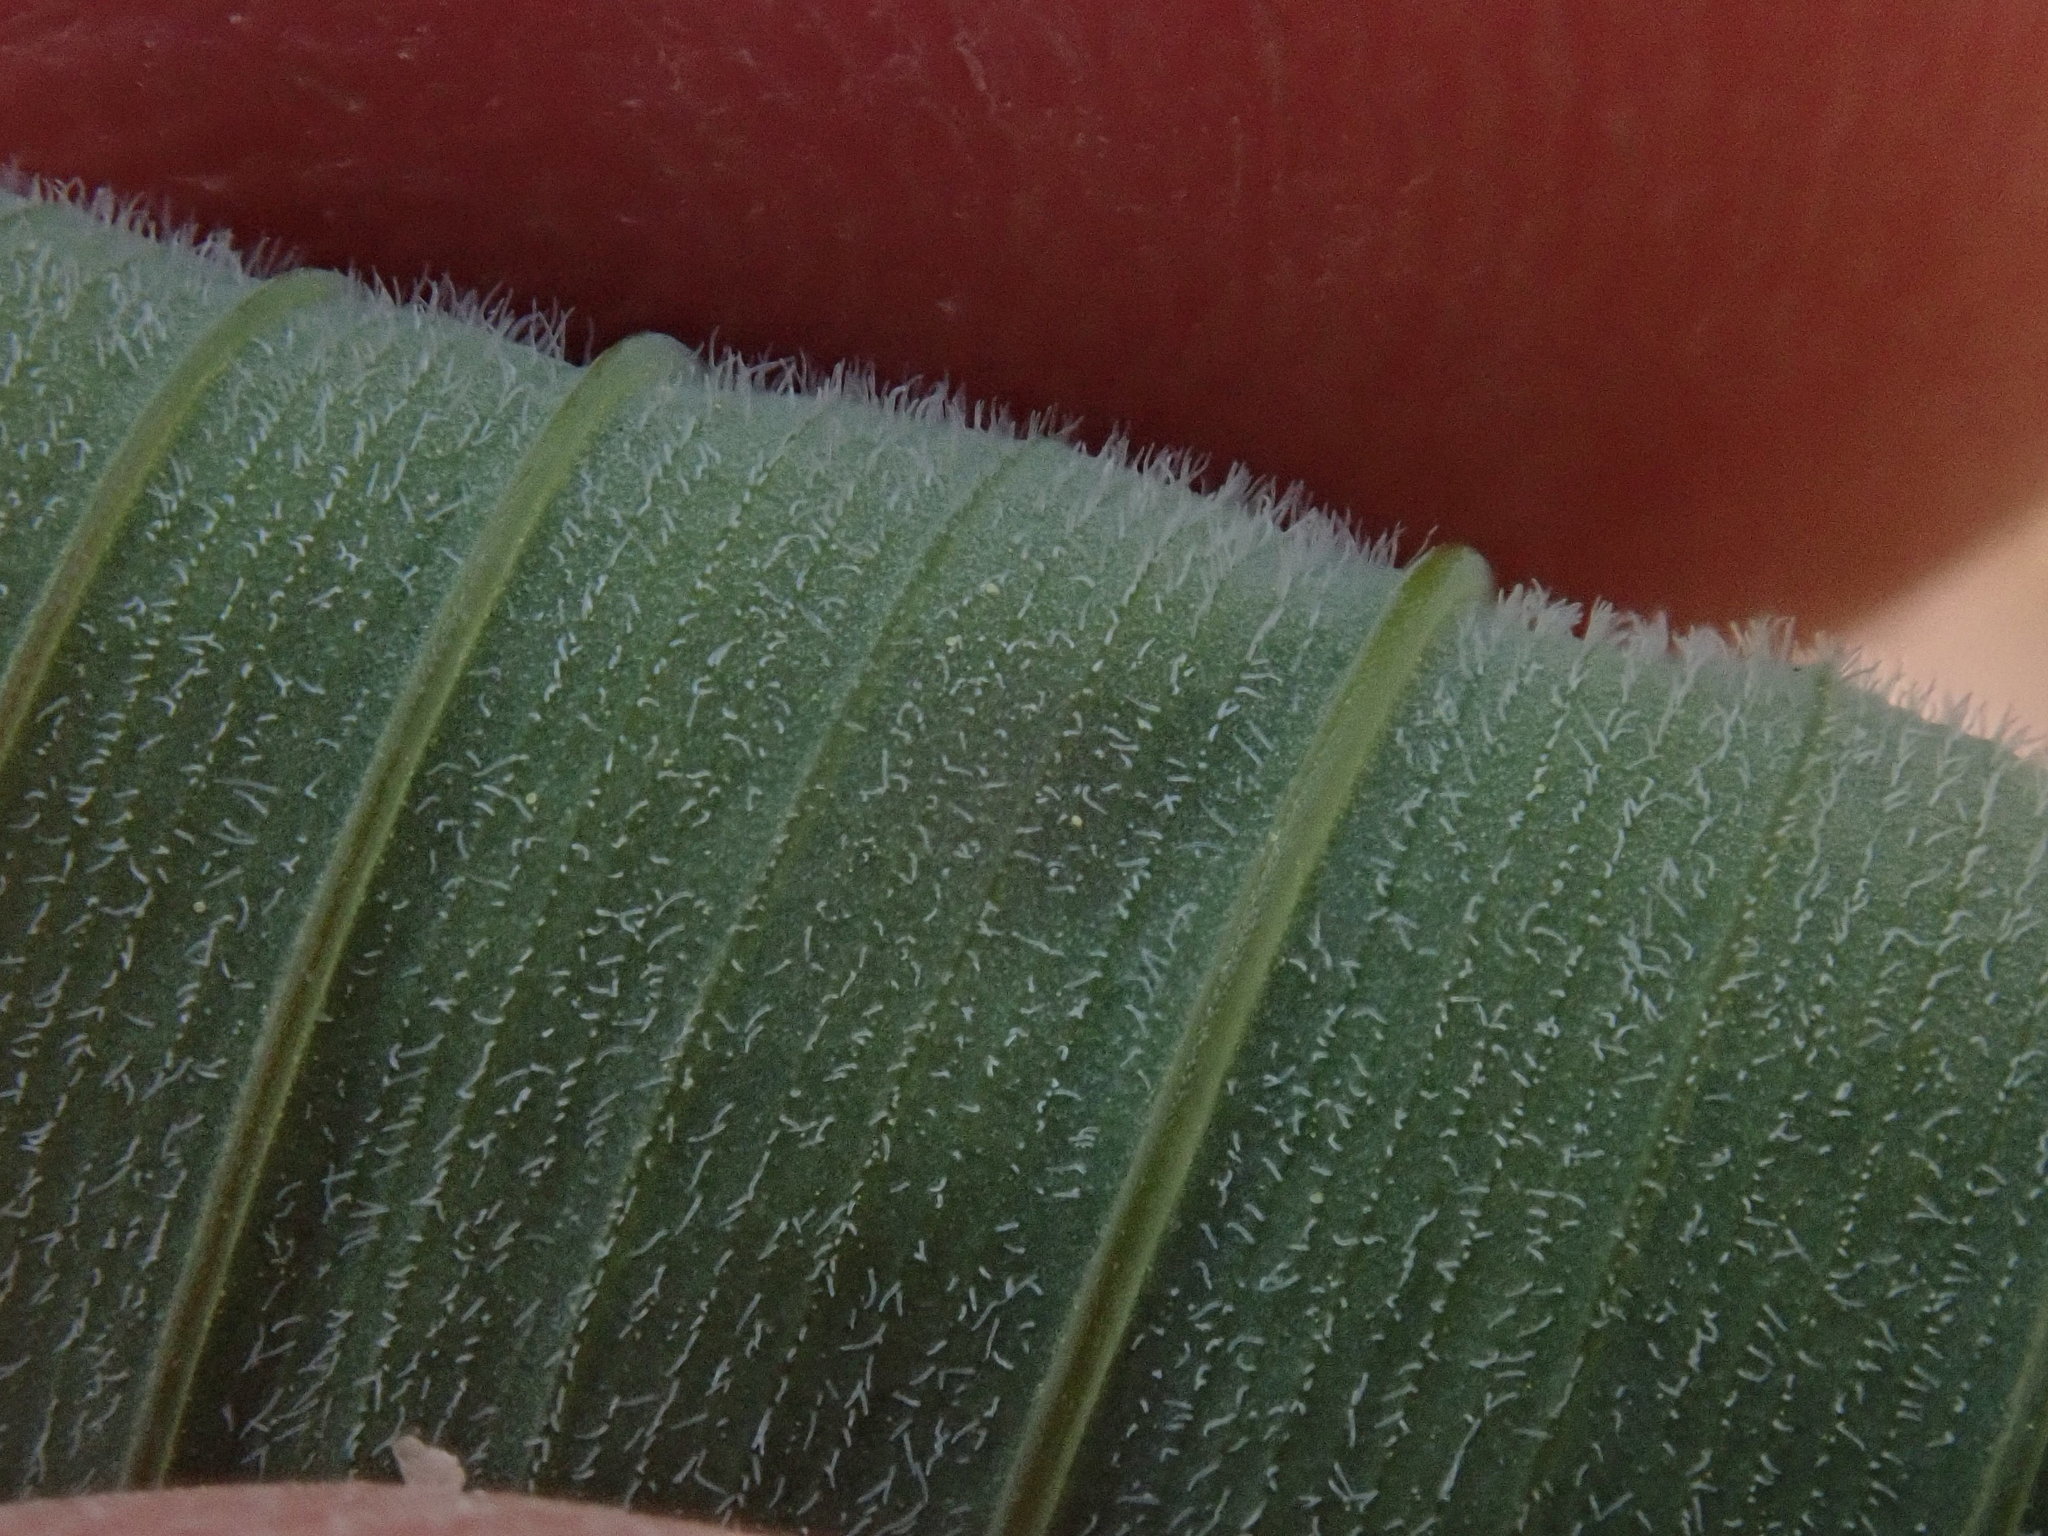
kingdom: Plantae
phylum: Tracheophyta
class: Liliopsida
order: Asparagales
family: Asparagaceae
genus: Polygonatum
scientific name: Polygonatum pubescens
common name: Downy solomon's seal
